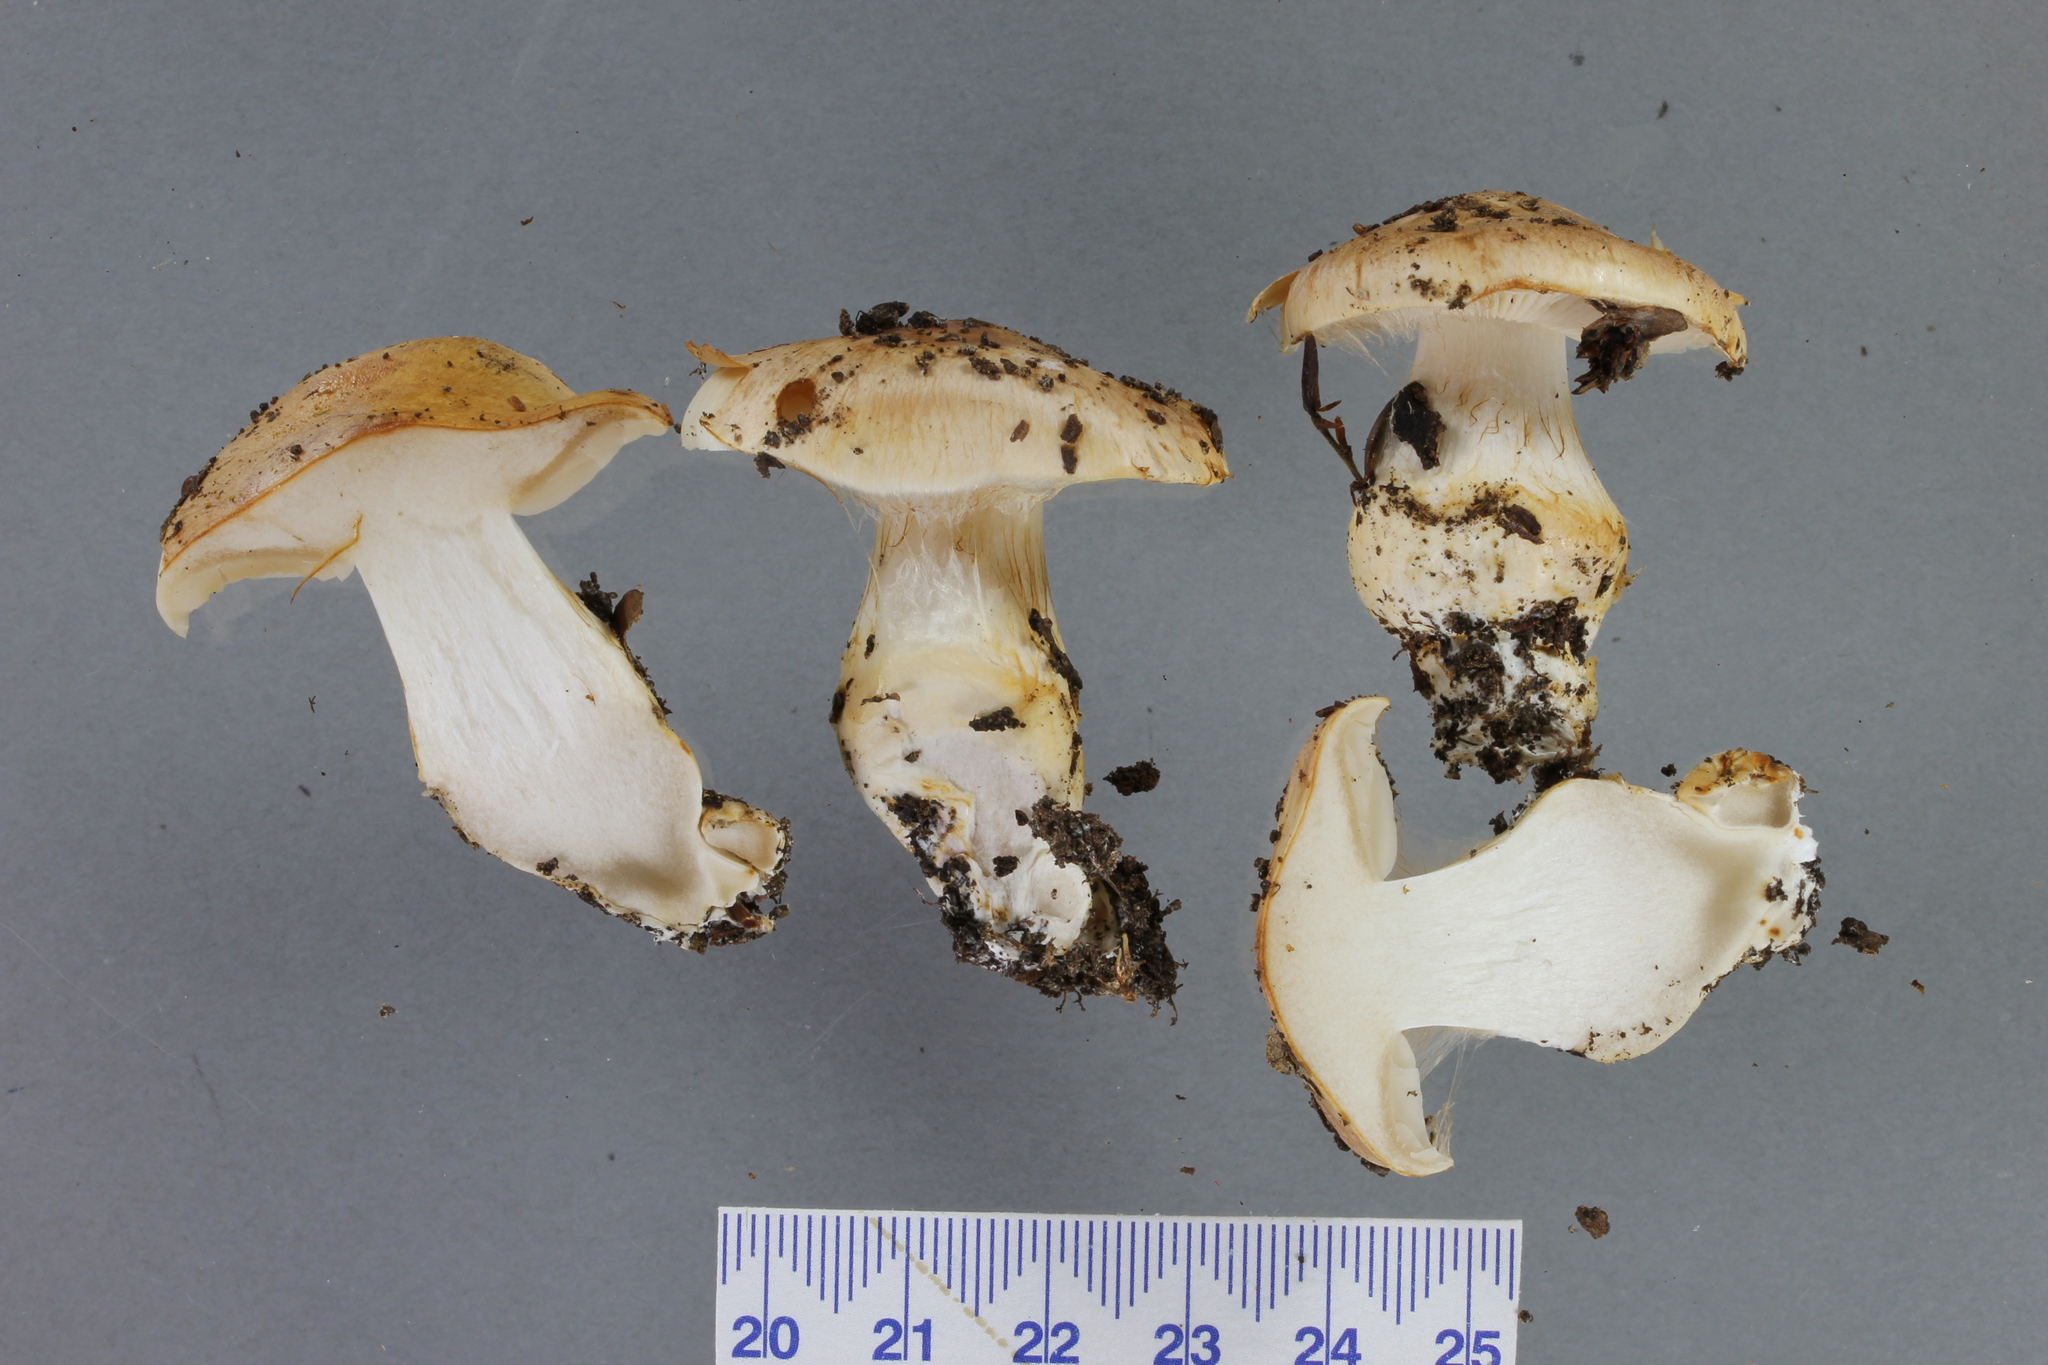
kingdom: Fungi
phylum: Basidiomycota
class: Agaricomycetes
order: Agaricales
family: Cortinariaceae
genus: Thaxterogaster
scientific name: Thaxterogaster cremeolina
